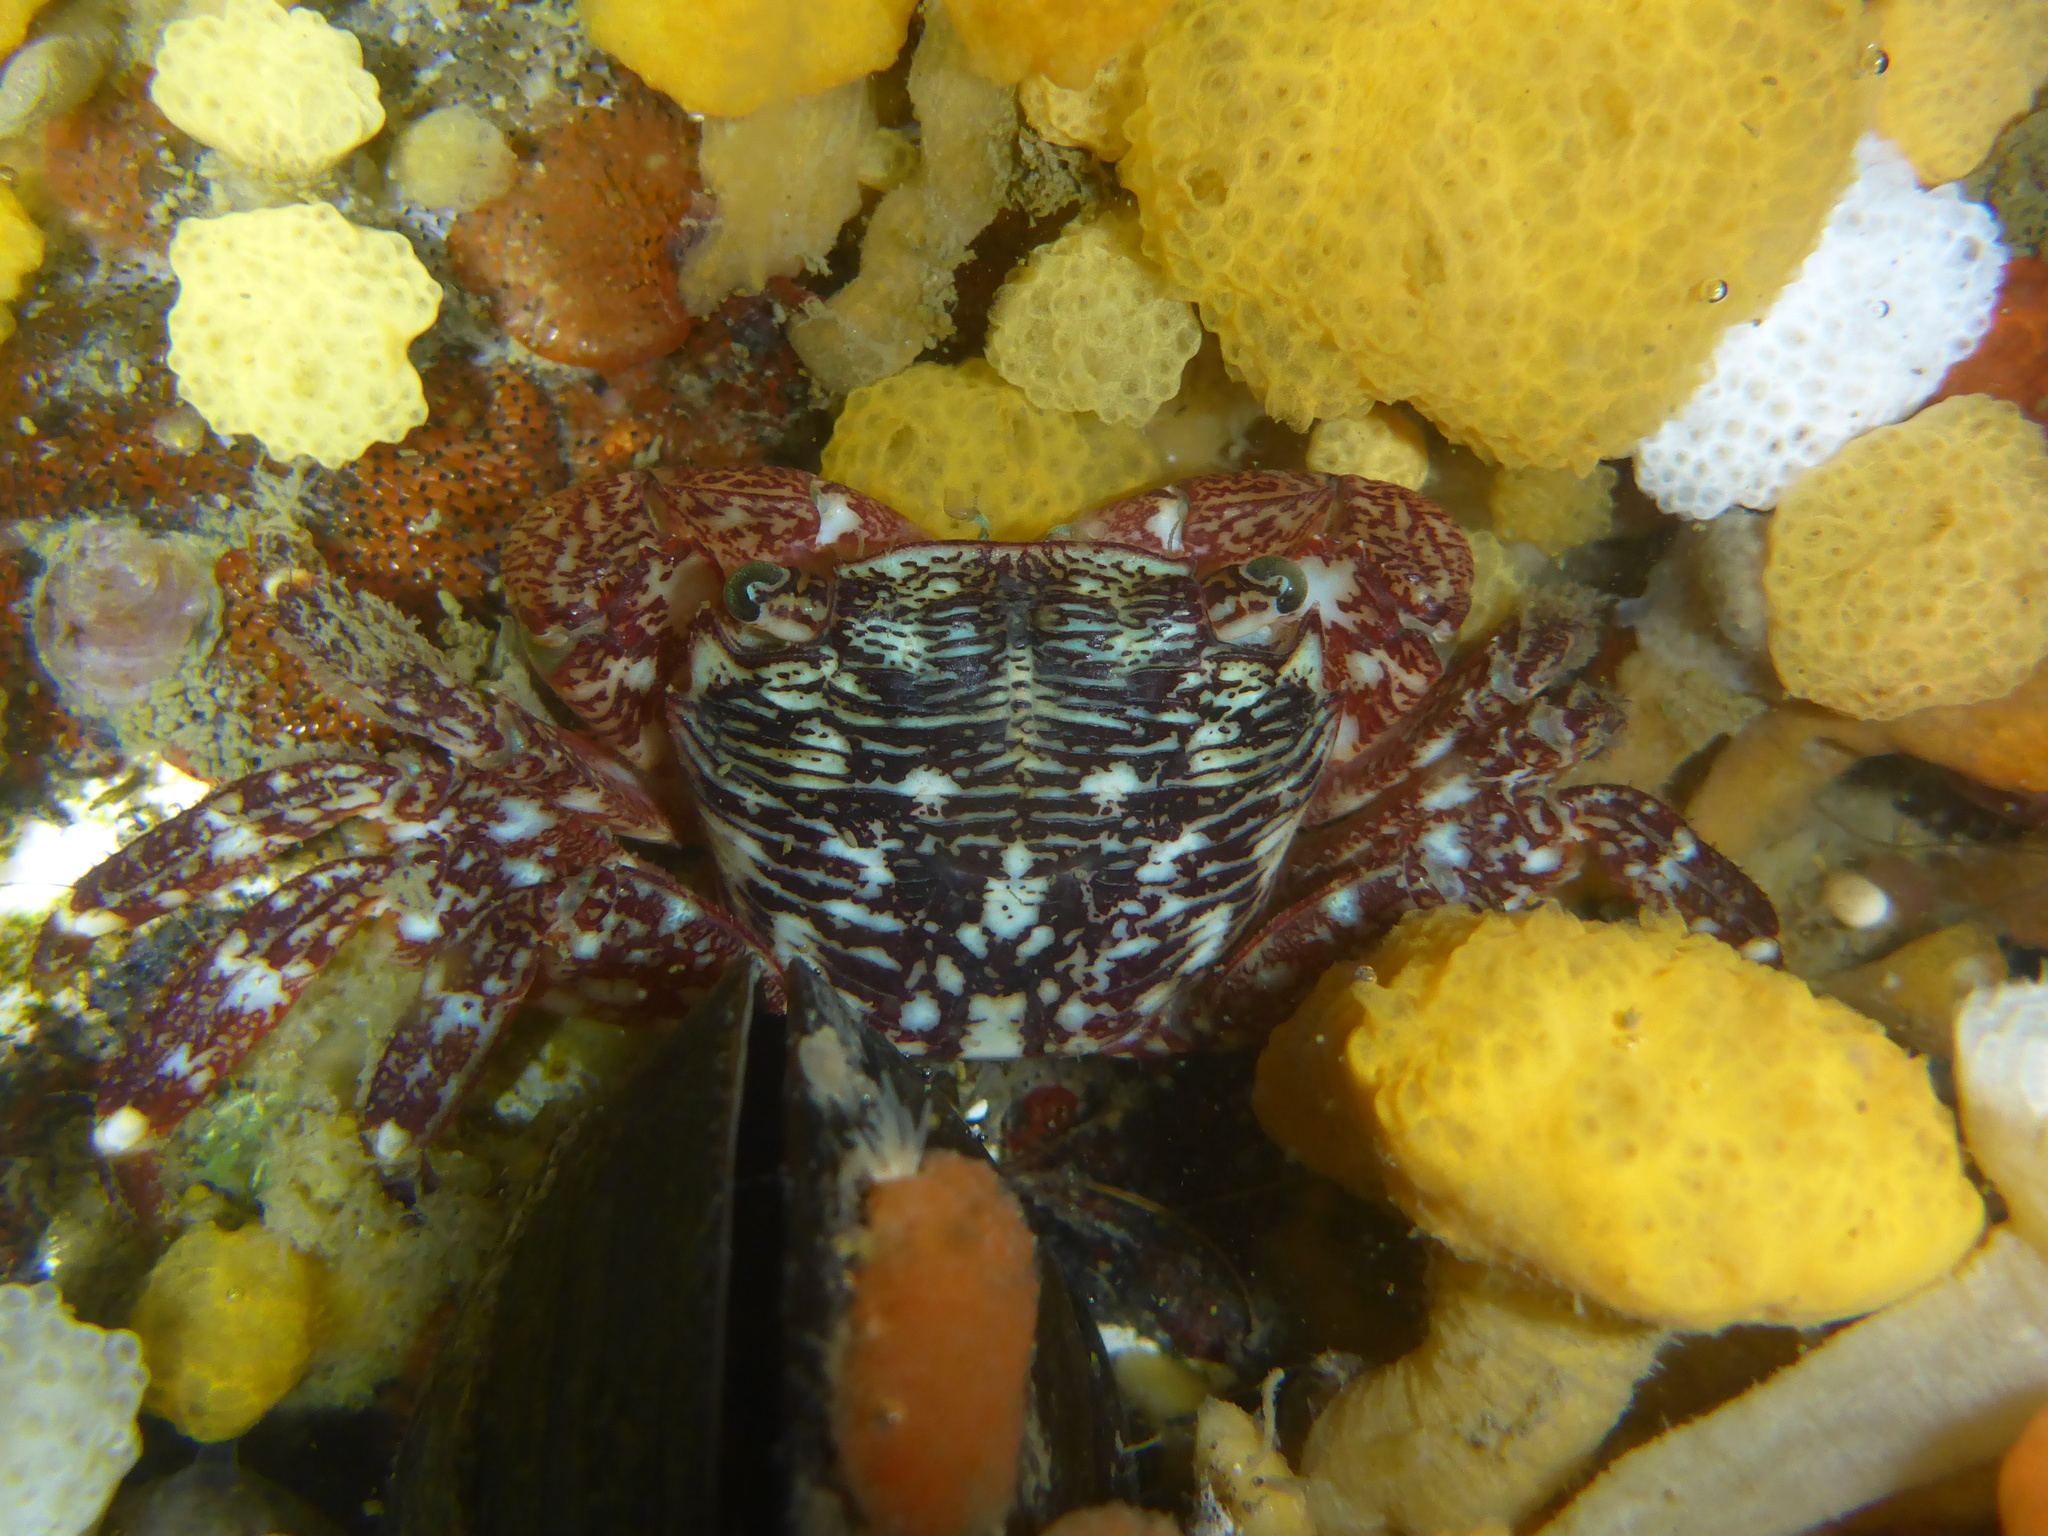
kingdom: Animalia
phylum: Arthropoda
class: Malacostraca
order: Decapoda
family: Grapsidae
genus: Pachygrapsus
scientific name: Pachygrapsus crassipes
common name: Striped shore crab
